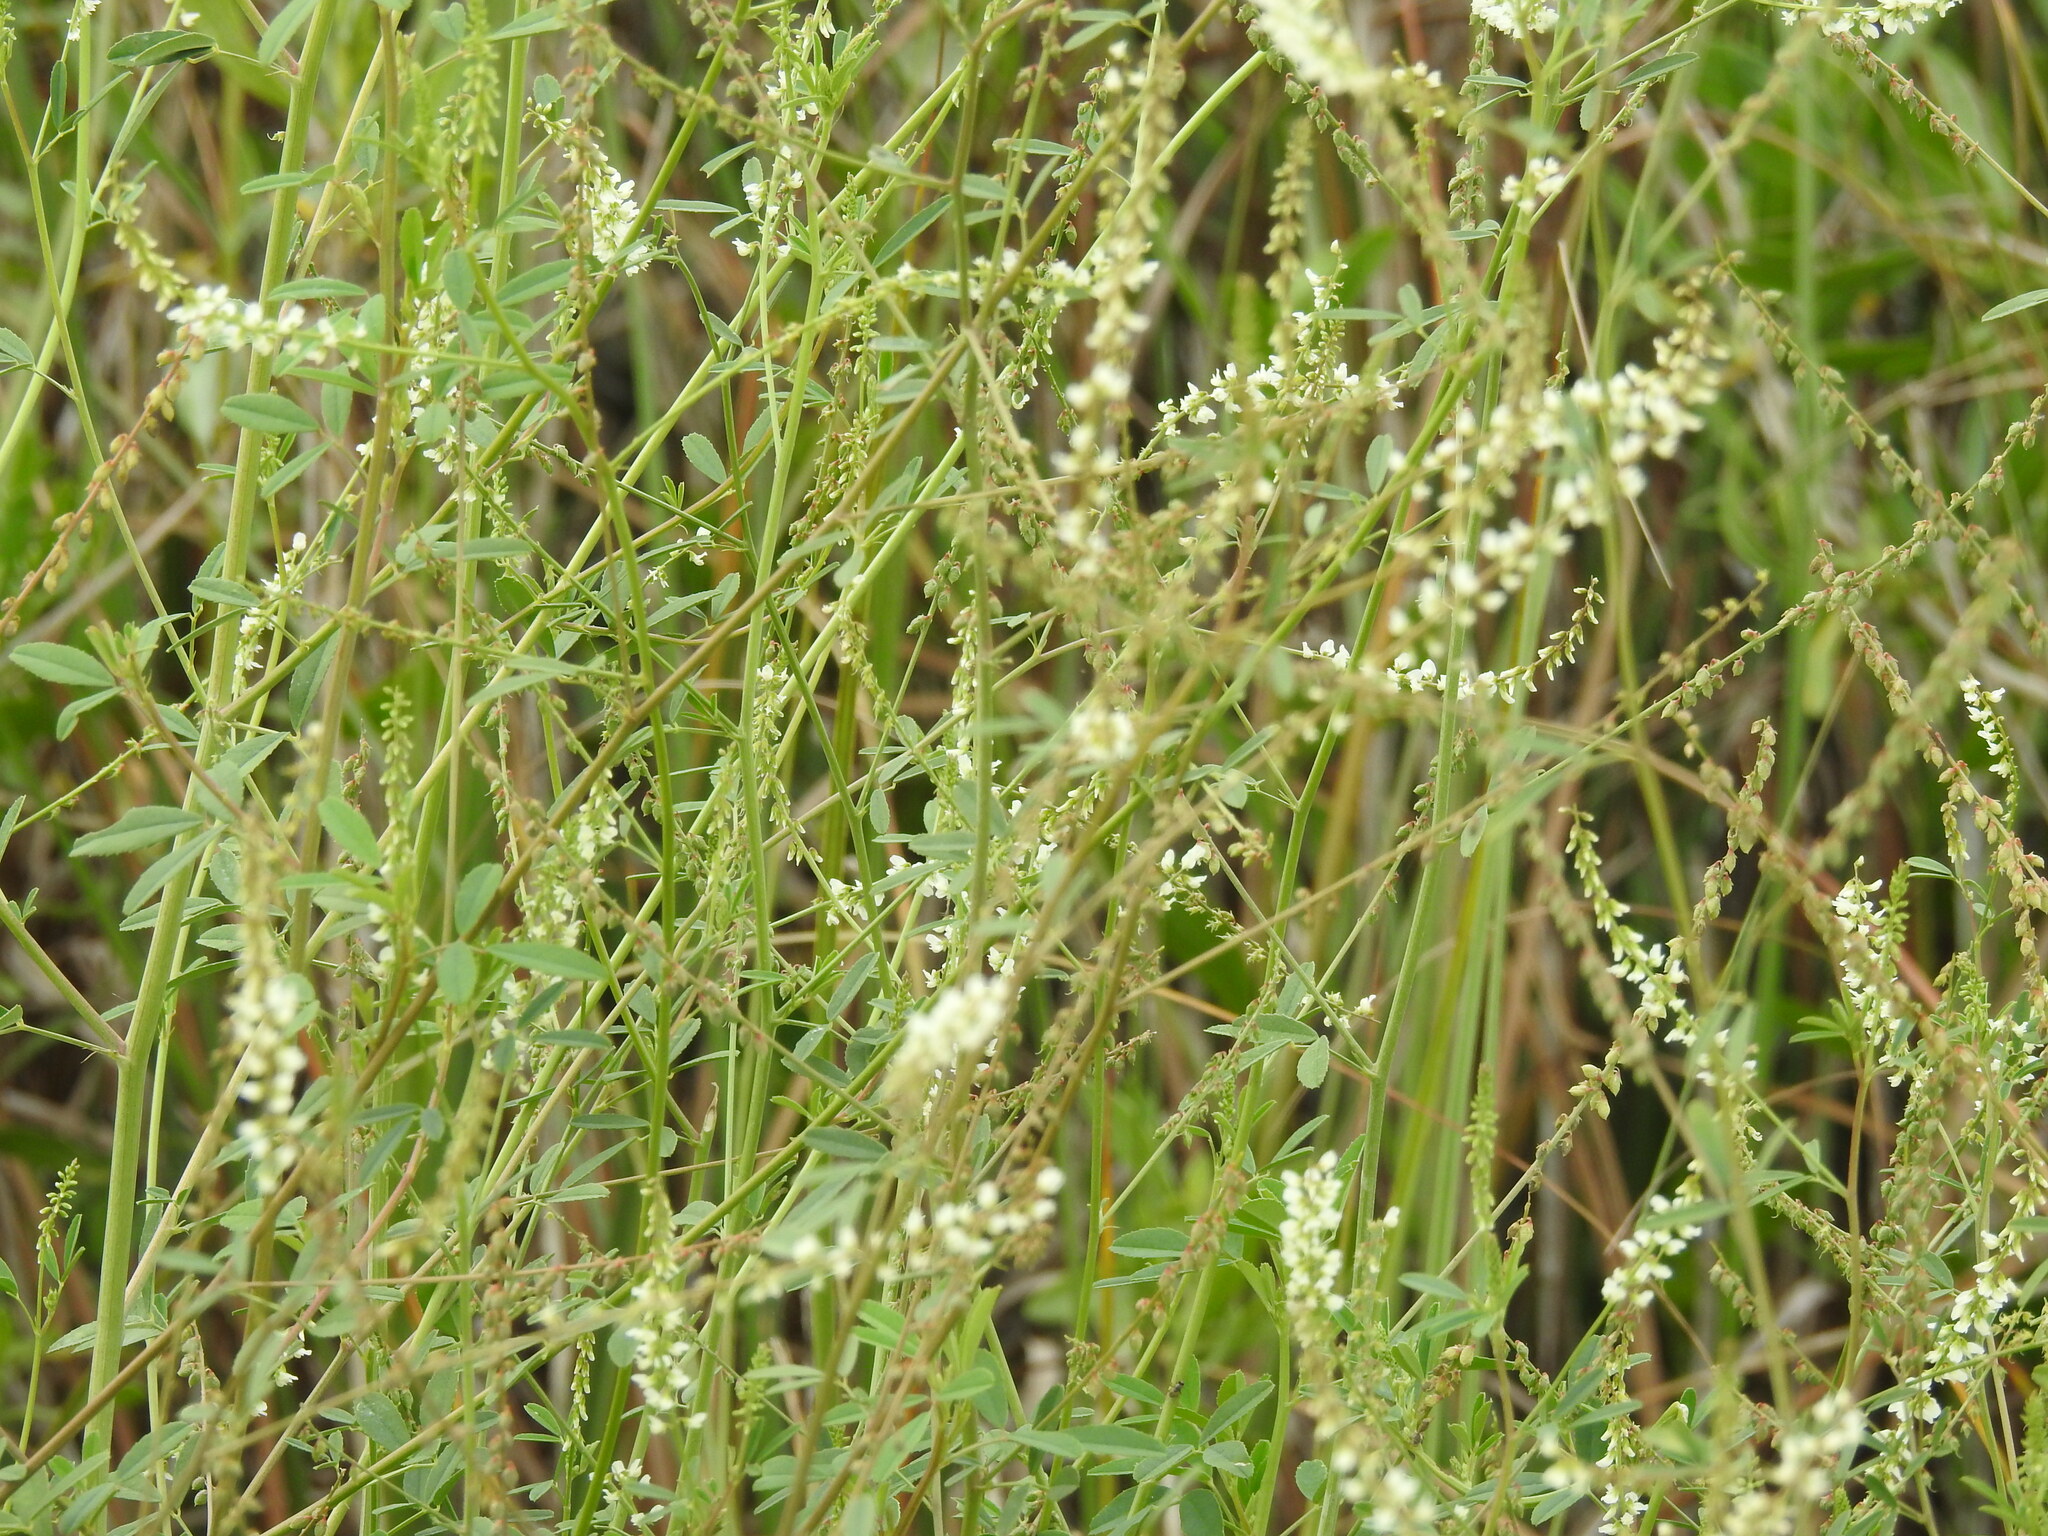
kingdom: Plantae
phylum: Tracheophyta
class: Magnoliopsida
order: Fabales
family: Fabaceae
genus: Melilotus
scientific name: Melilotus albus
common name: White melilot
